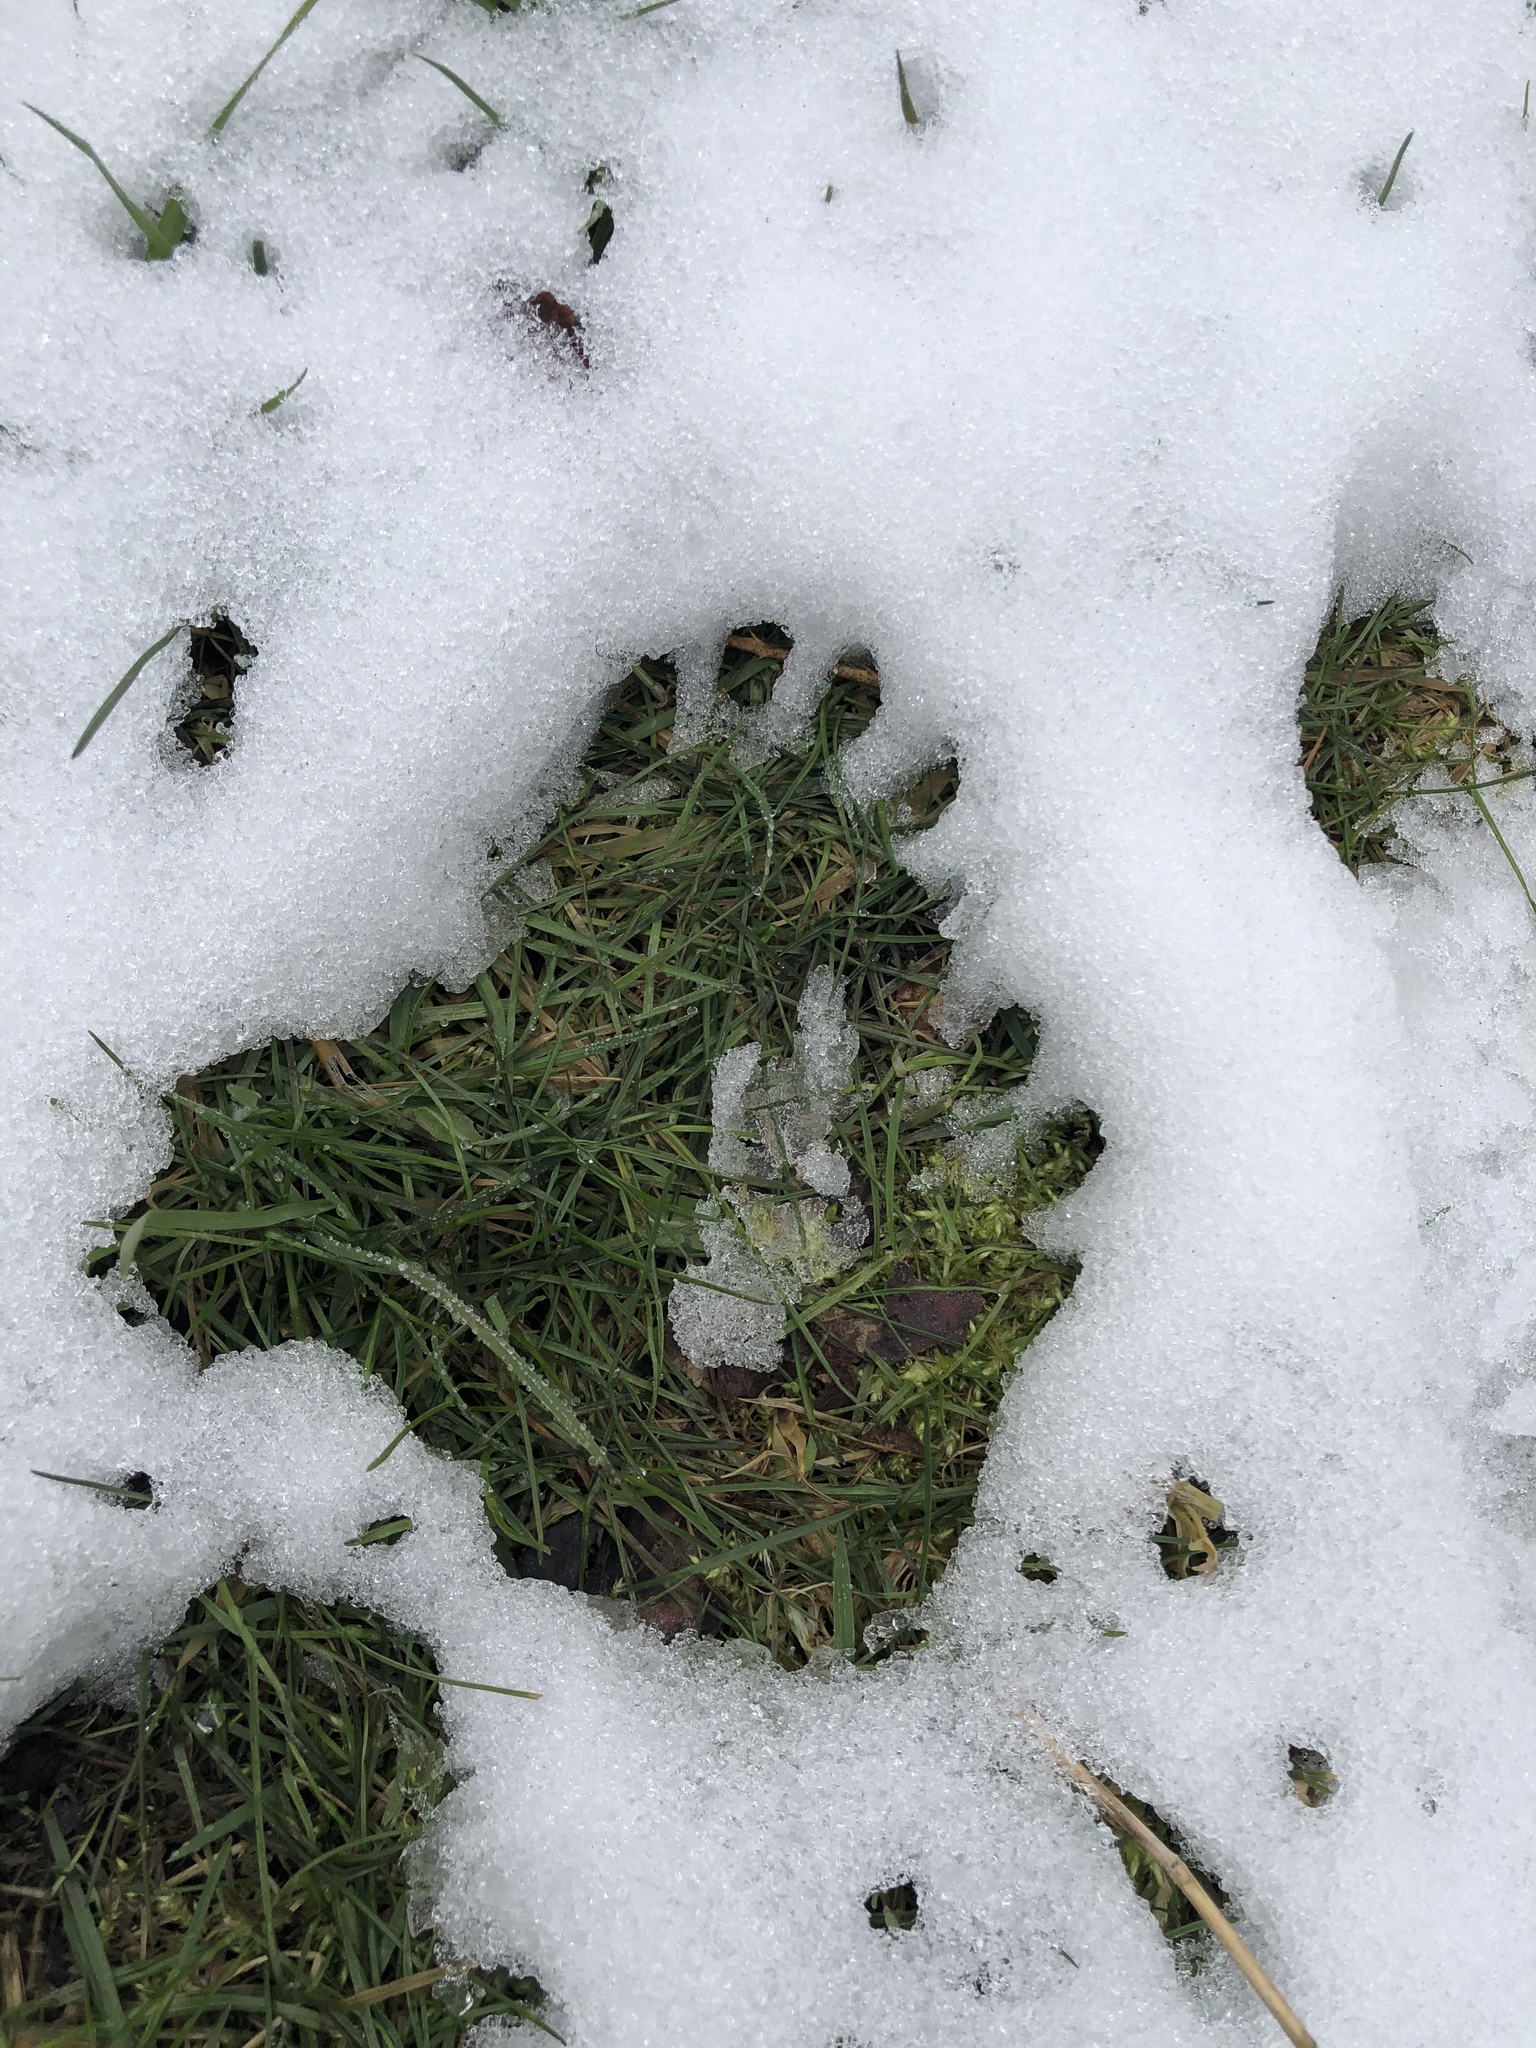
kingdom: Animalia
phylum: Chordata
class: Mammalia
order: Carnivora
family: Procyonidae
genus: Procyon
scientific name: Procyon lotor
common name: Raccoon
